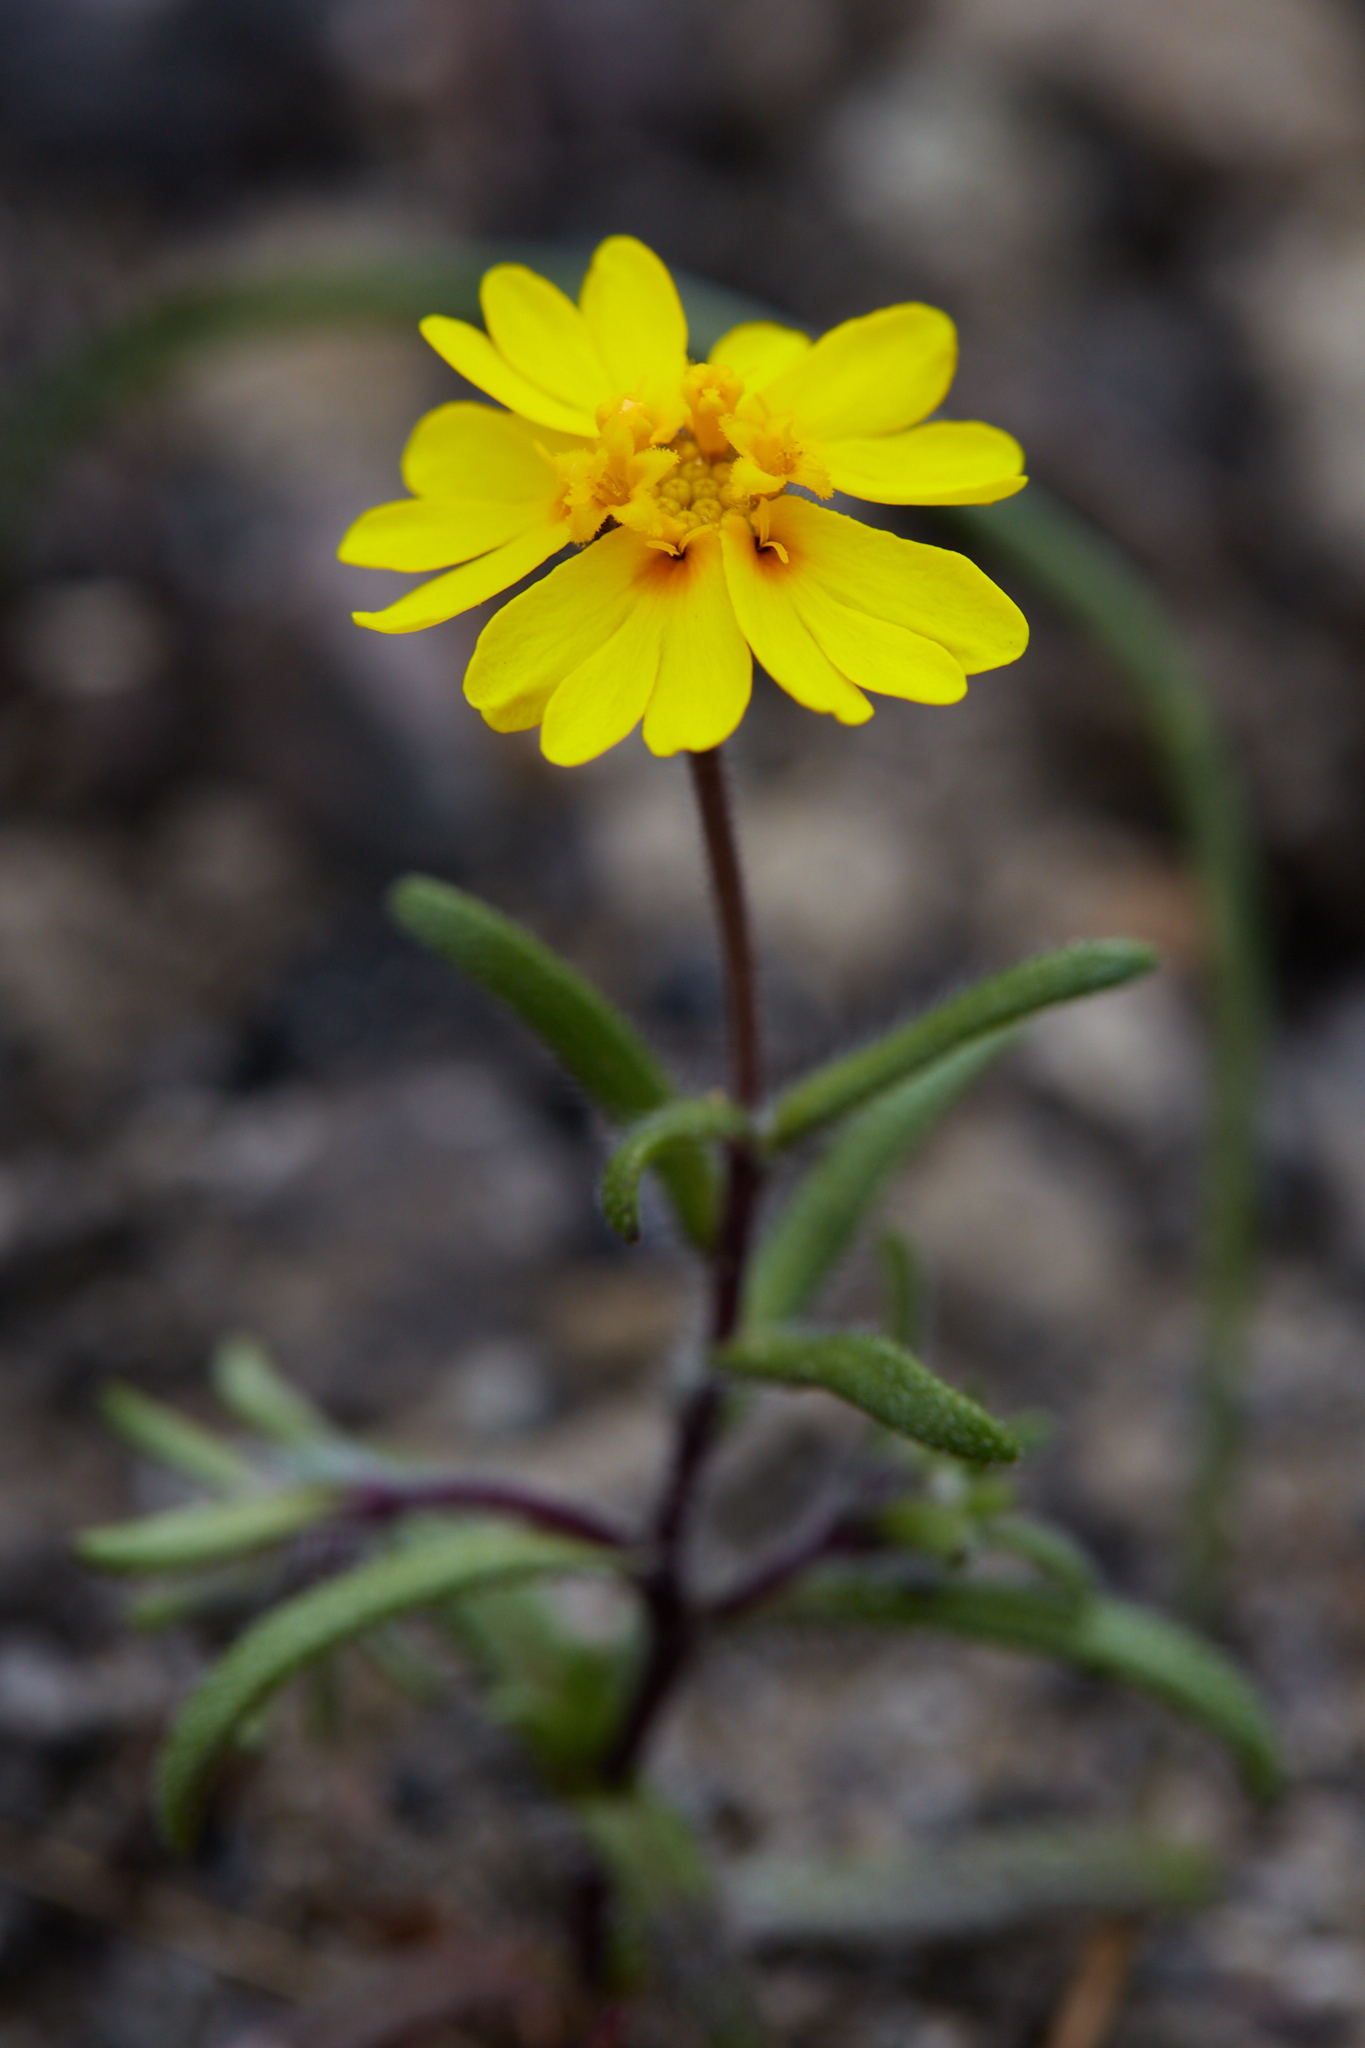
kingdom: Plantae
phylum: Tracheophyta
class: Magnoliopsida
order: Asterales
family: Asteraceae
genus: Harmonia
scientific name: Harmonia nutans
